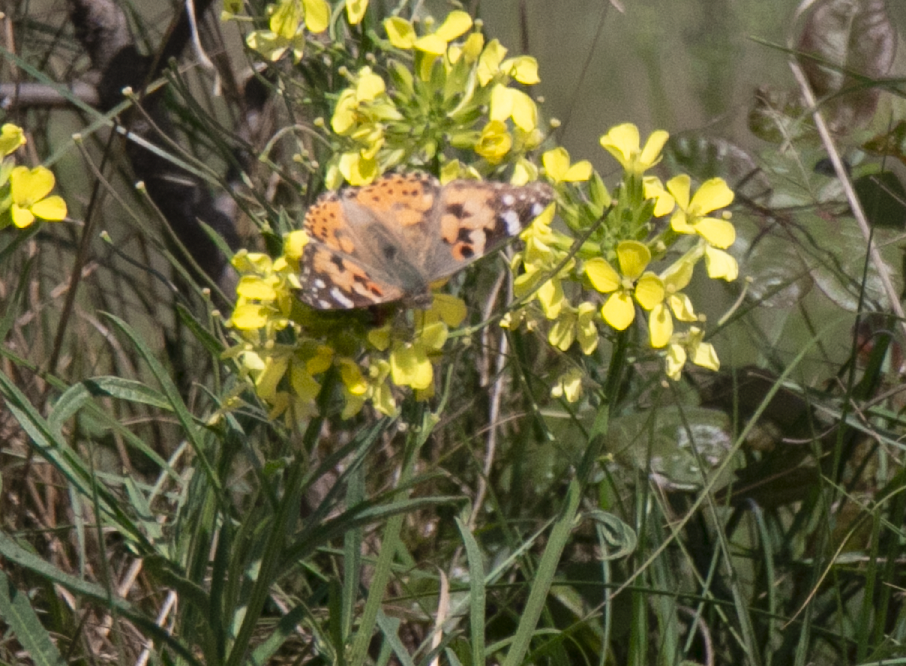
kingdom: Animalia
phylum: Arthropoda
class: Insecta
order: Lepidoptera
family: Nymphalidae
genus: Vanessa
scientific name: Vanessa cardui
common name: Painted lady
